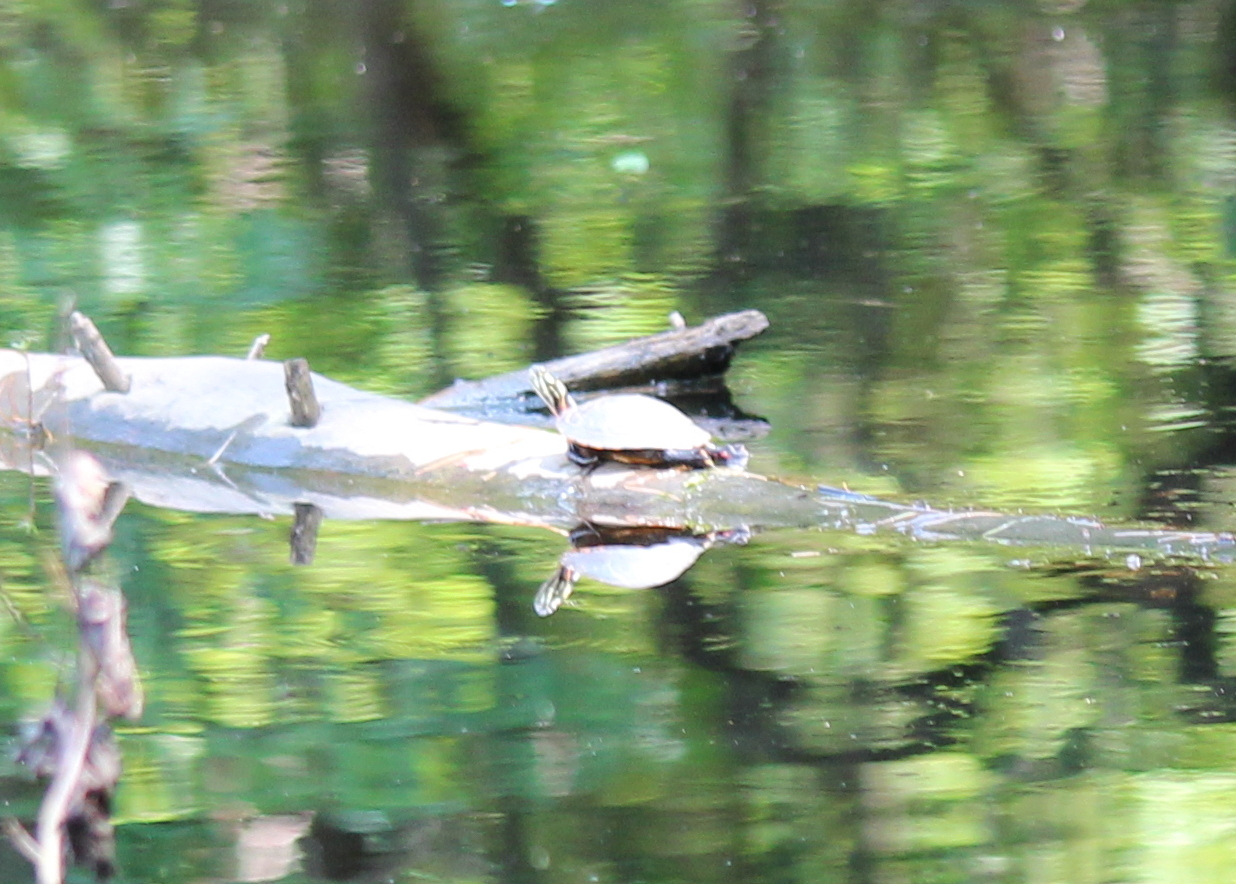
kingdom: Animalia
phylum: Chordata
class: Testudines
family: Emydidae
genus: Chrysemys
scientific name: Chrysemys picta
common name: Painted turtle
